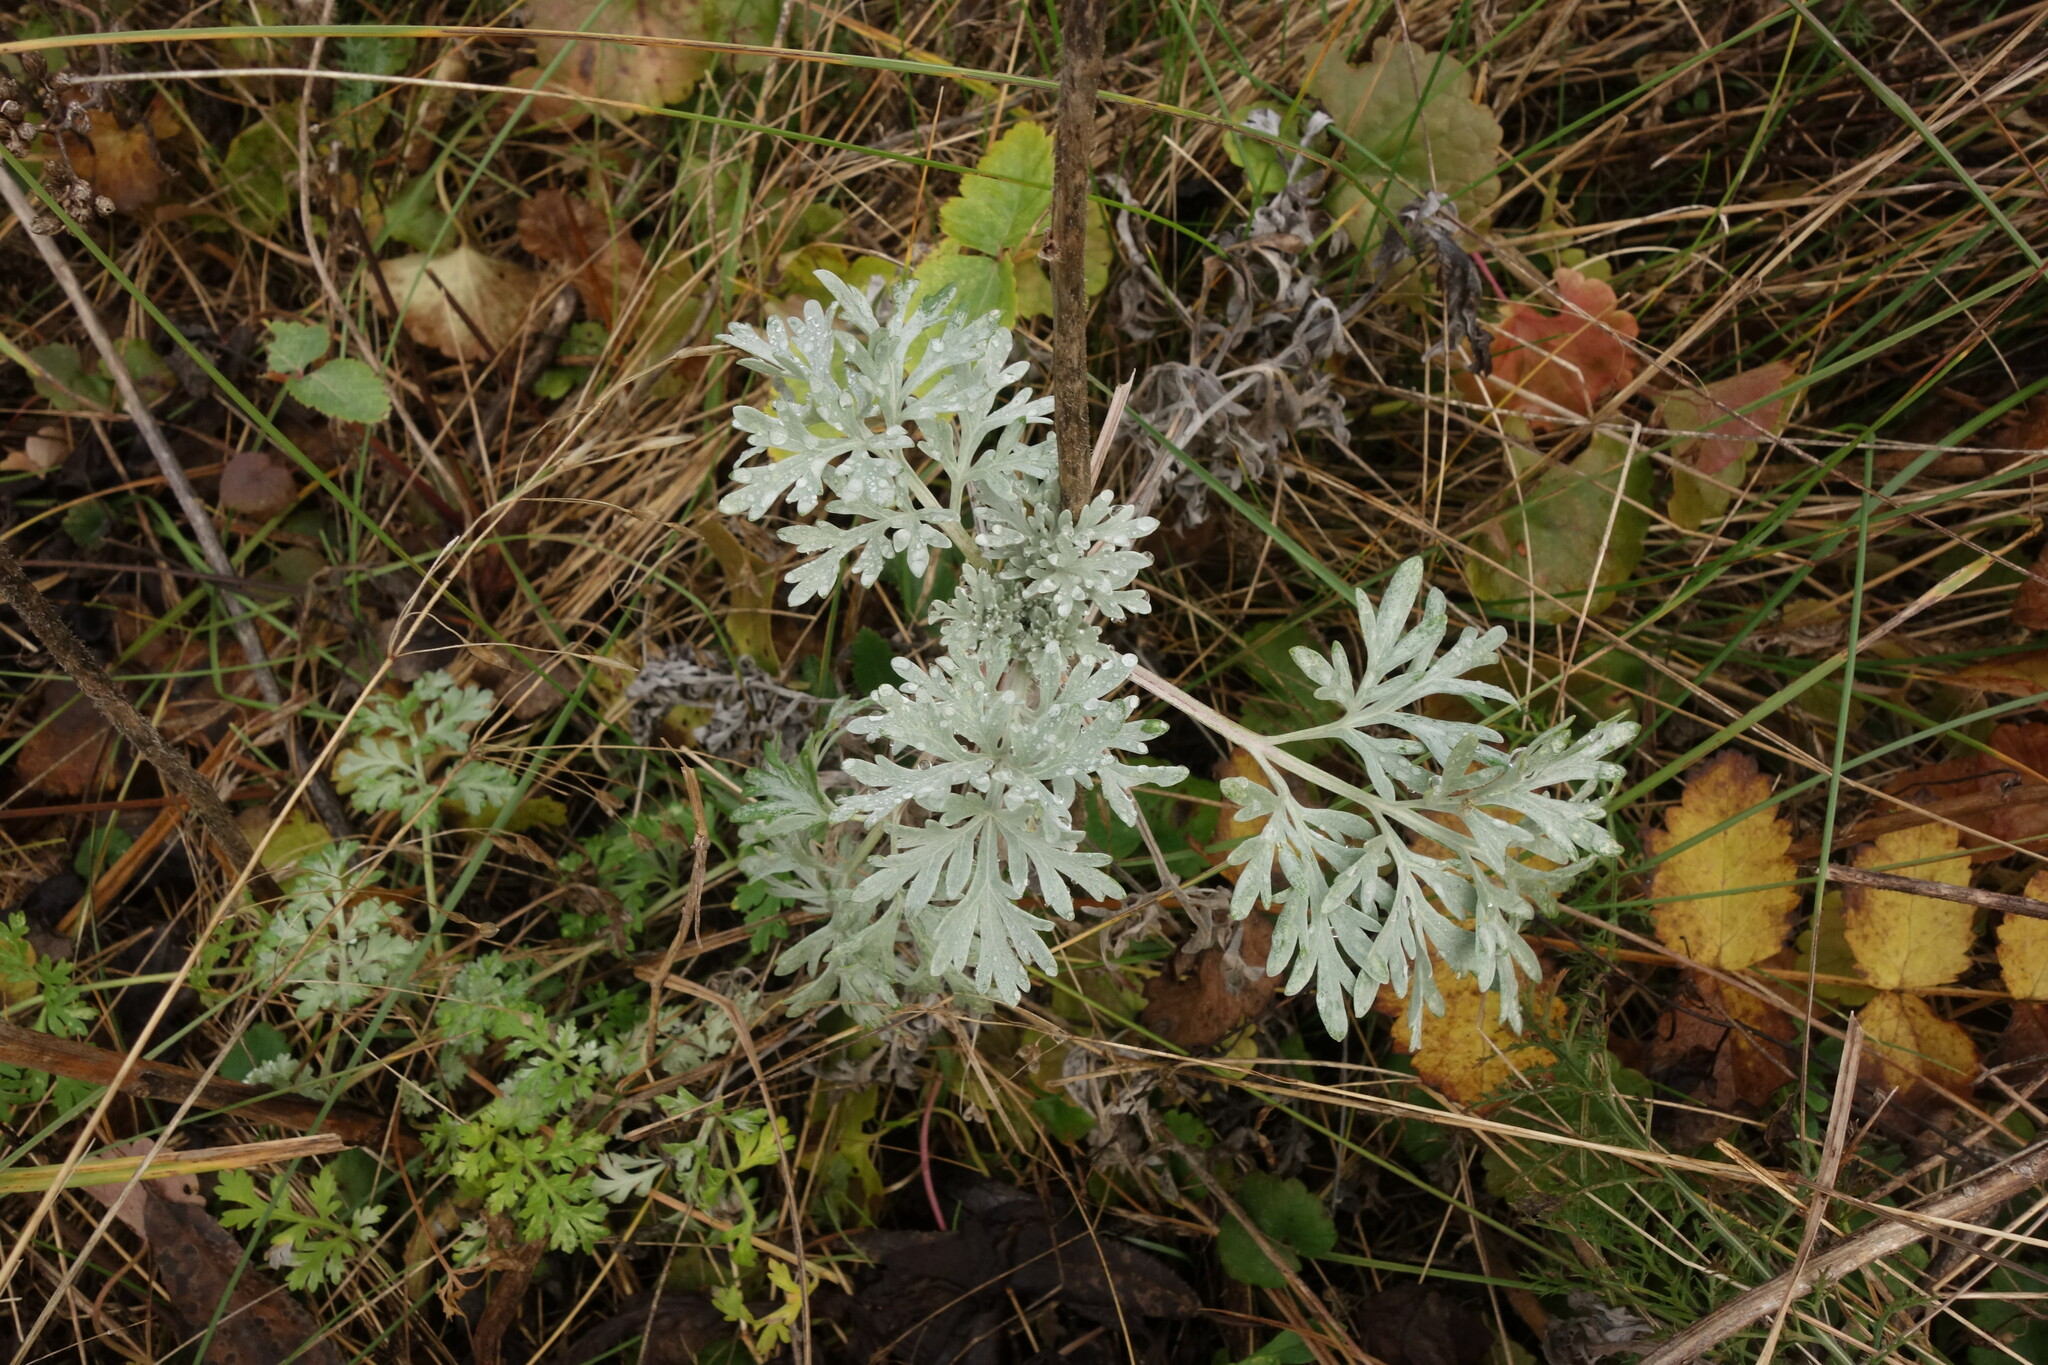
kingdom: Plantae
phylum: Tracheophyta
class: Magnoliopsida
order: Asterales
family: Asteraceae
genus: Artemisia
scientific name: Artemisia absinthium
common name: Wormwood
